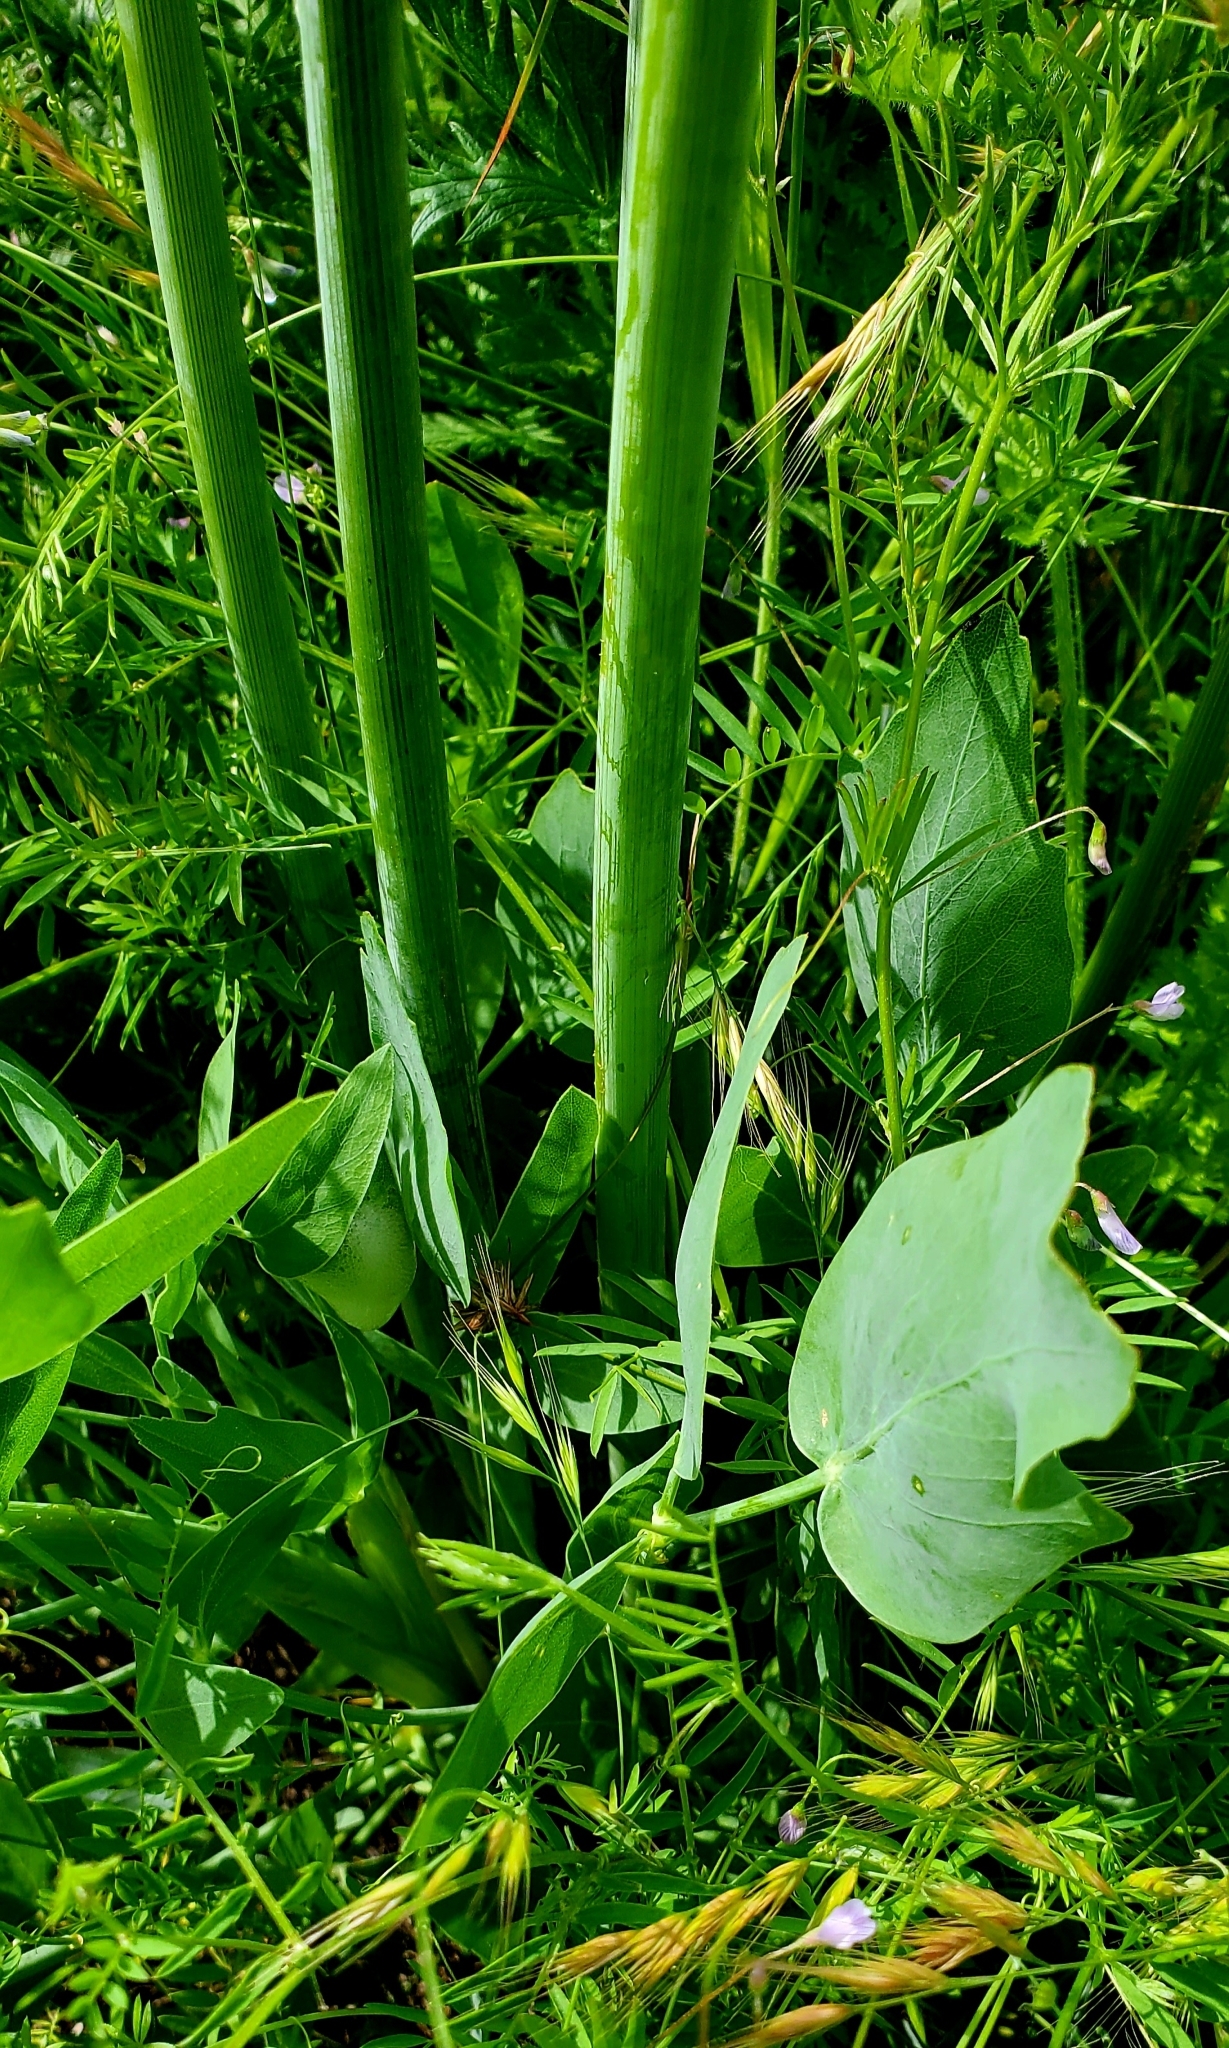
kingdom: Plantae
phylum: Tracheophyta
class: Magnoliopsida
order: Apiales
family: Apiaceae
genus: Lomatium
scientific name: Lomatium nudicaule
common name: Pestle lomatium
